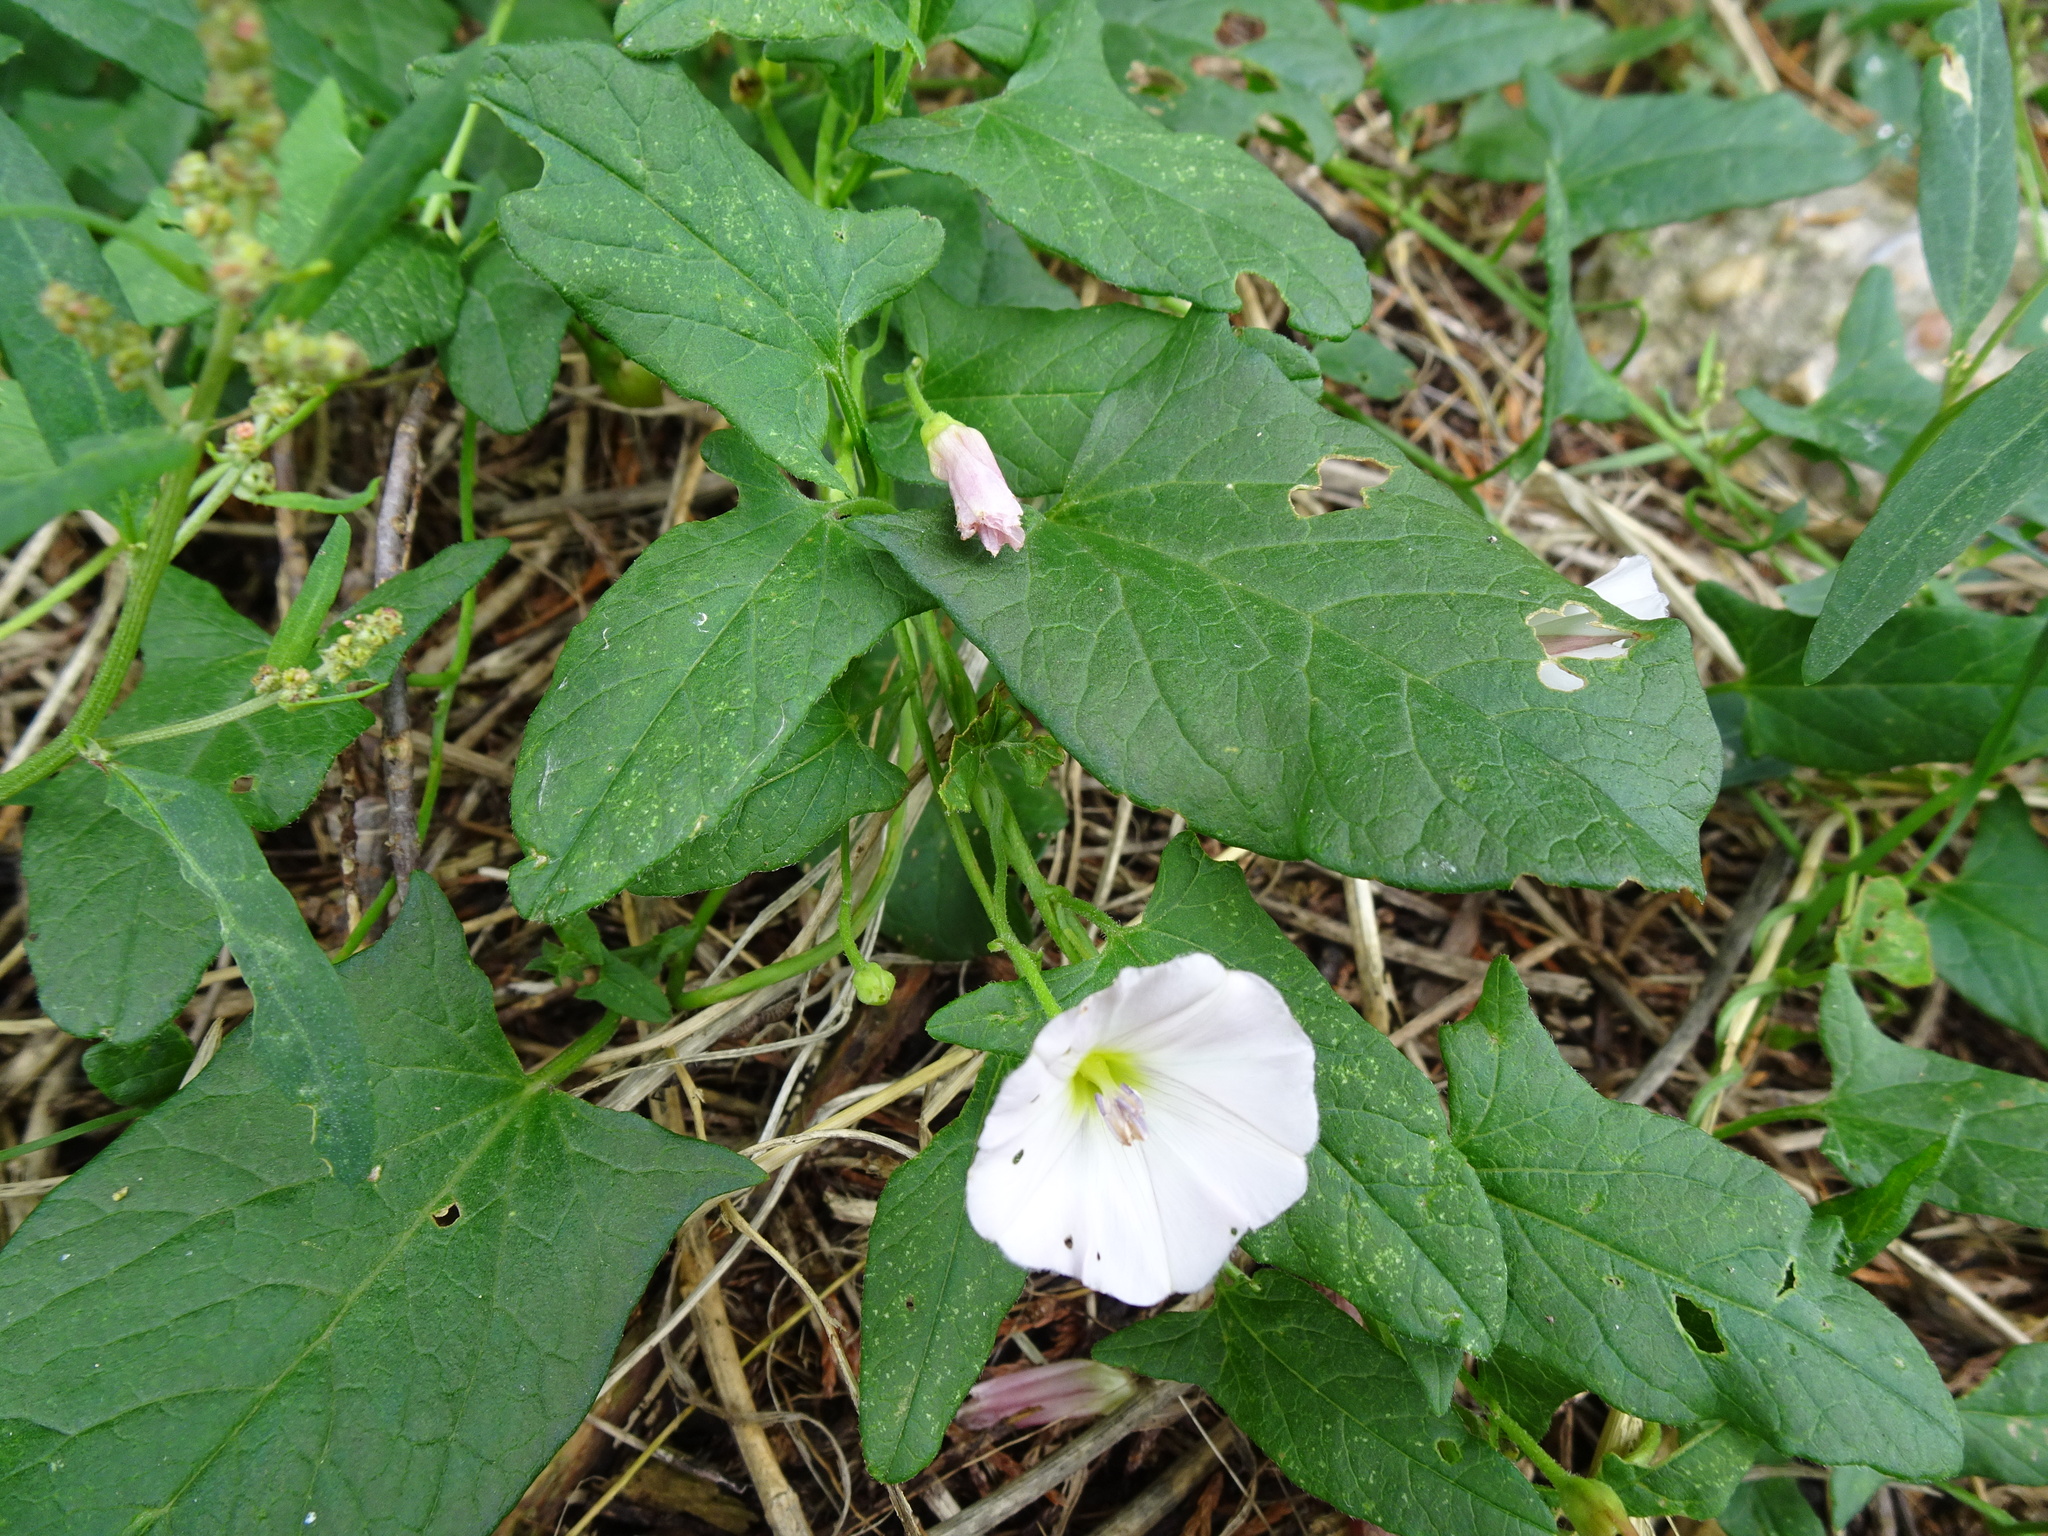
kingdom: Plantae
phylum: Tracheophyta
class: Magnoliopsida
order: Solanales
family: Convolvulaceae
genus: Convolvulus
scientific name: Convolvulus arvensis
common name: Field bindweed
